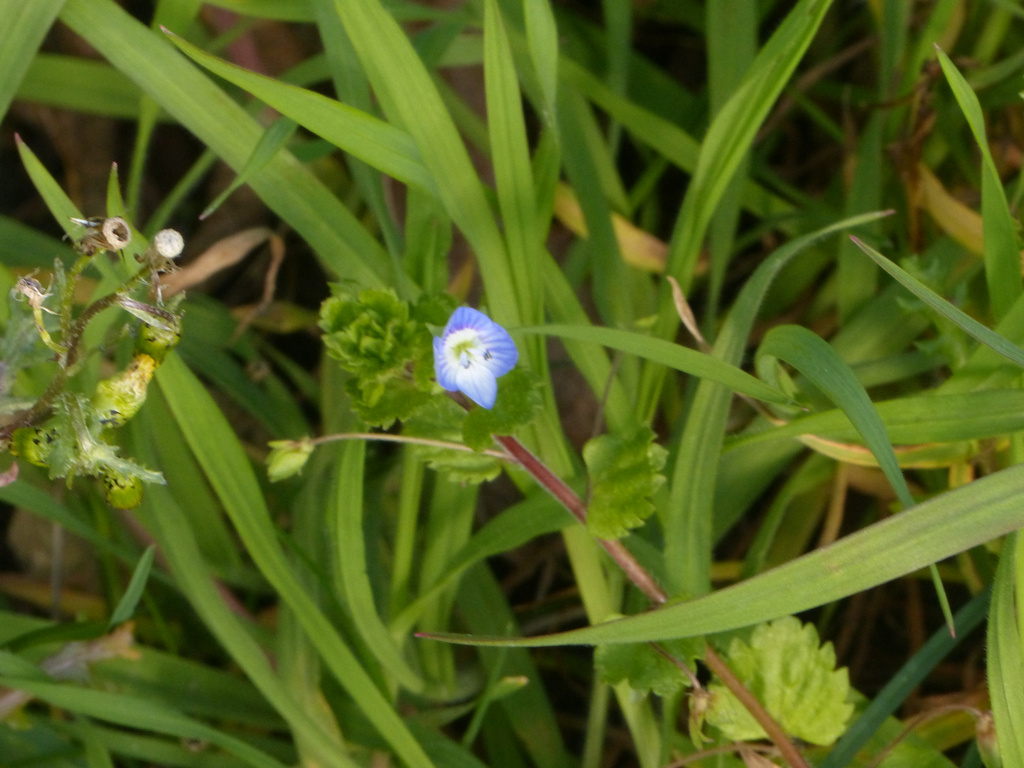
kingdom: Plantae
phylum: Tracheophyta
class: Magnoliopsida
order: Lamiales
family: Plantaginaceae
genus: Veronica
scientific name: Veronica persica
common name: Common field-speedwell
